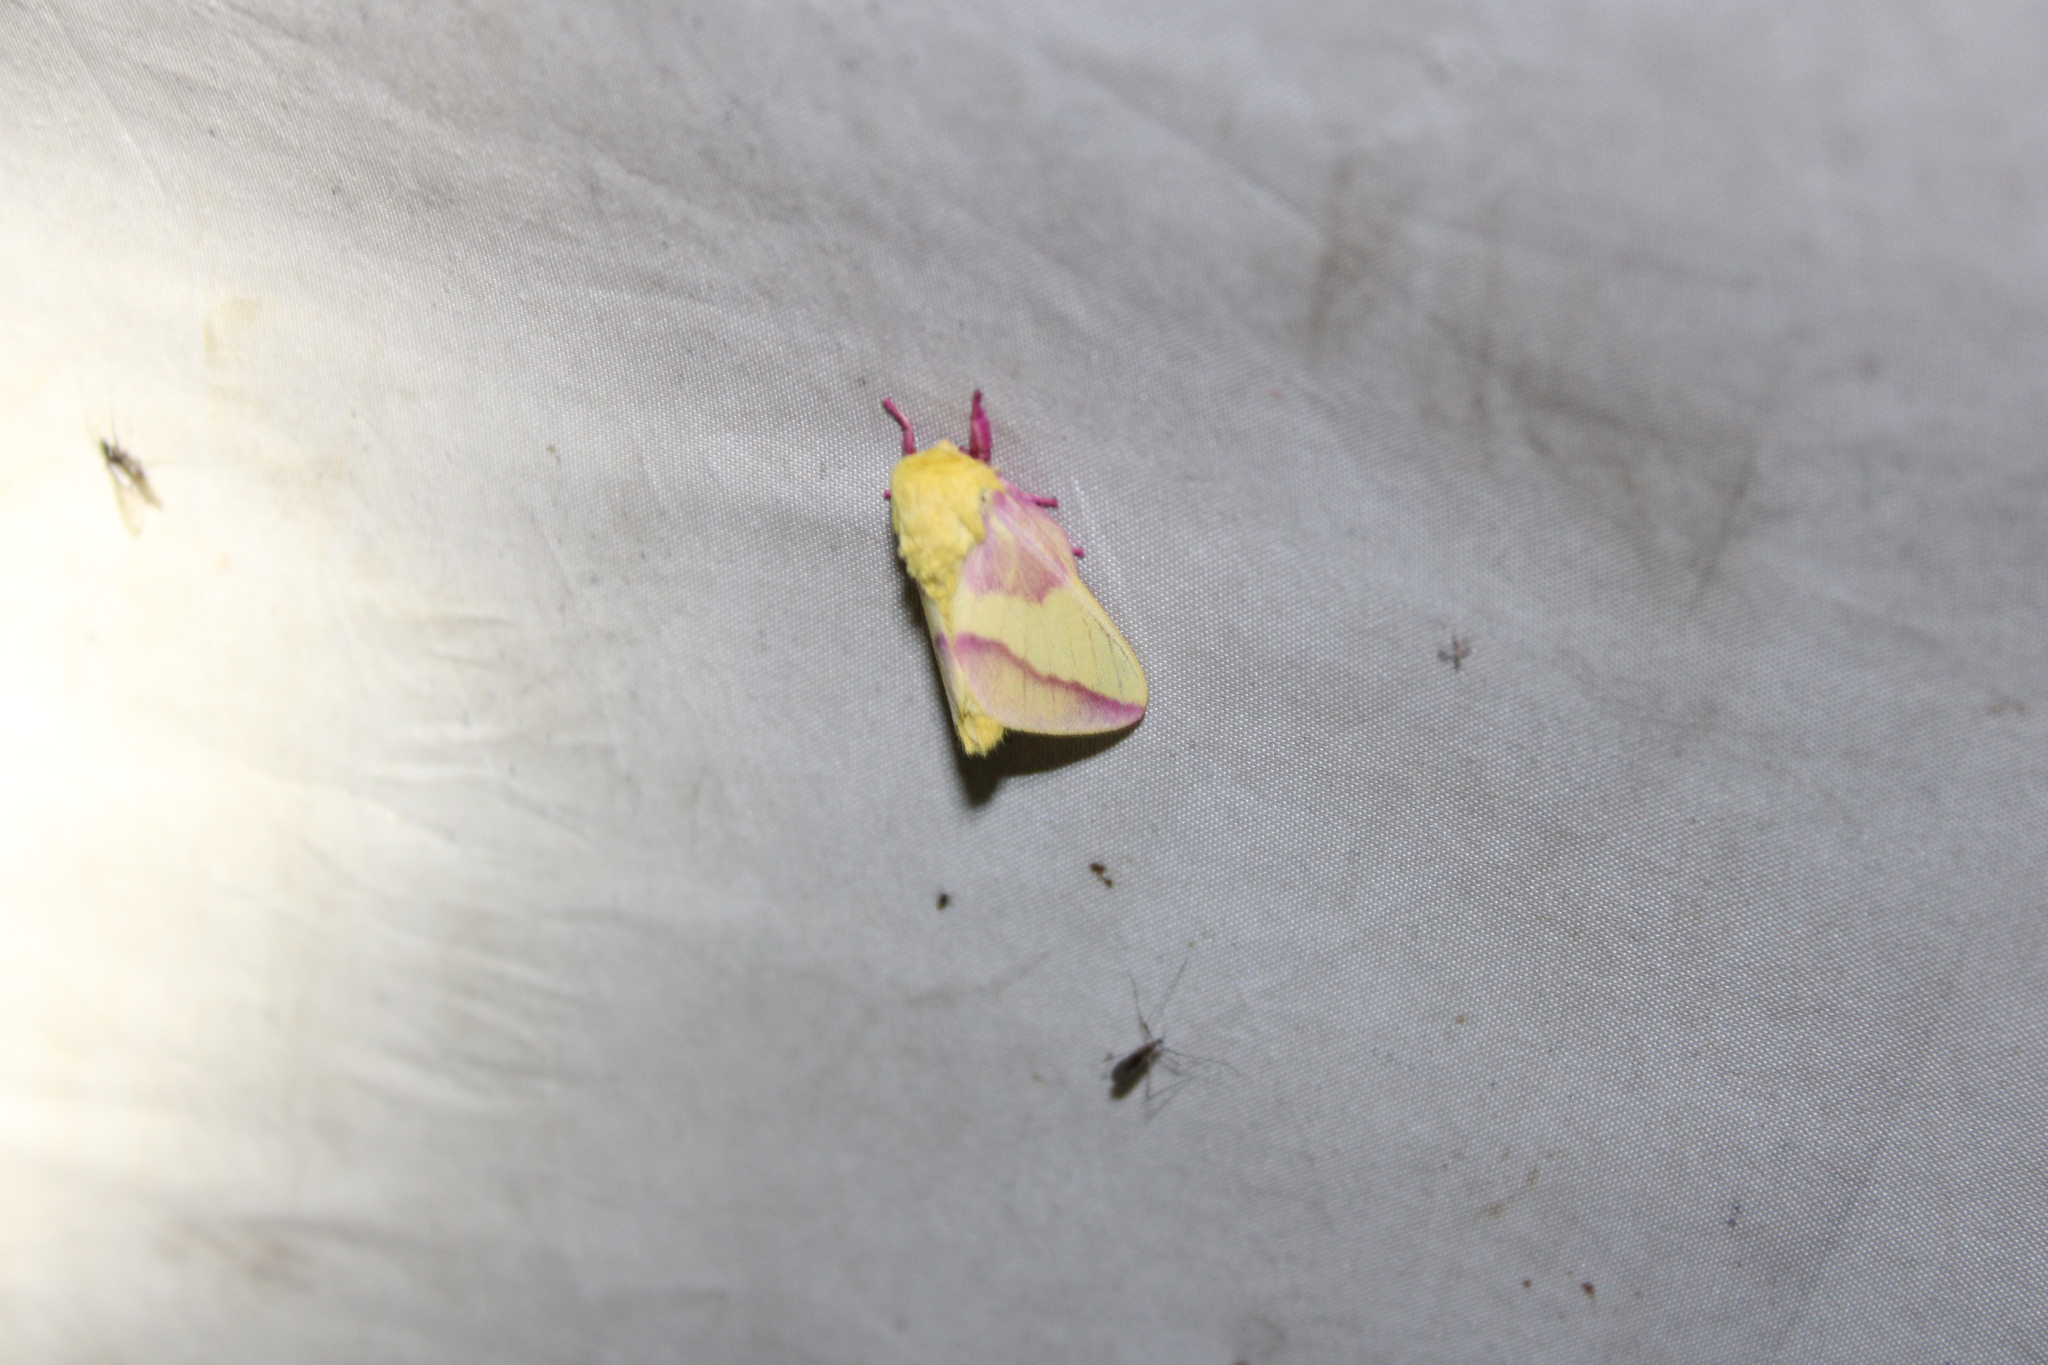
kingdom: Animalia
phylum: Arthropoda
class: Insecta
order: Lepidoptera
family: Saturniidae
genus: Dryocampa
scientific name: Dryocampa rubicunda
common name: Rosy maple moth
